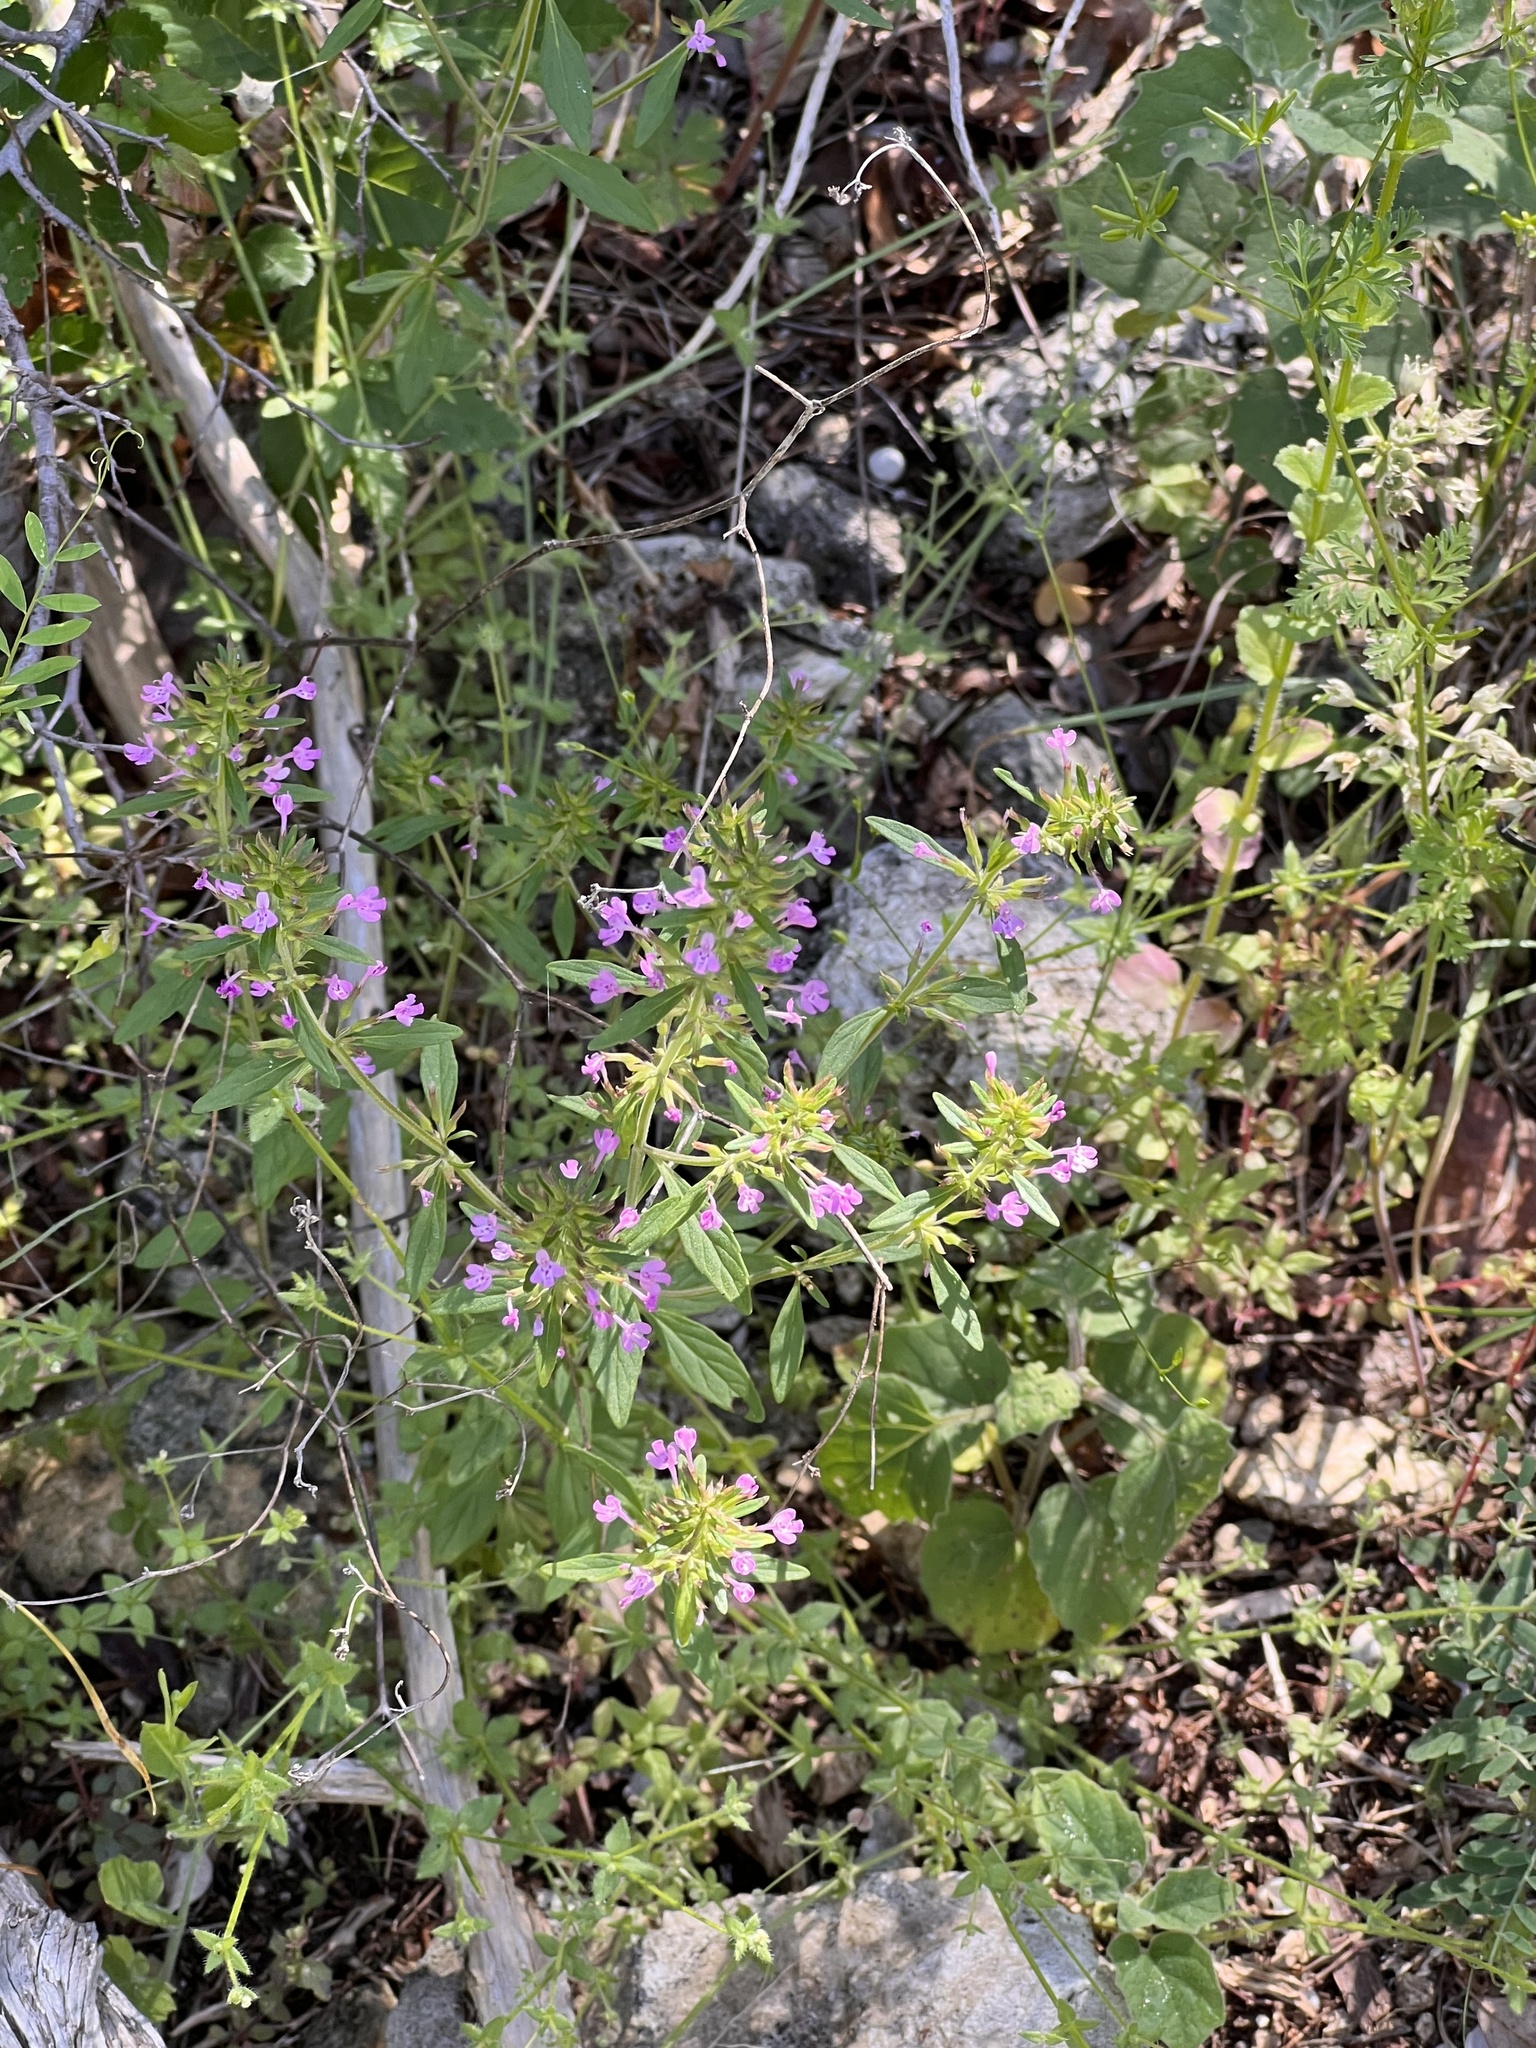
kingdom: Plantae
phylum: Tracheophyta
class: Magnoliopsida
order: Lamiales
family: Lamiaceae
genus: Hedeoma
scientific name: Hedeoma acinoides
